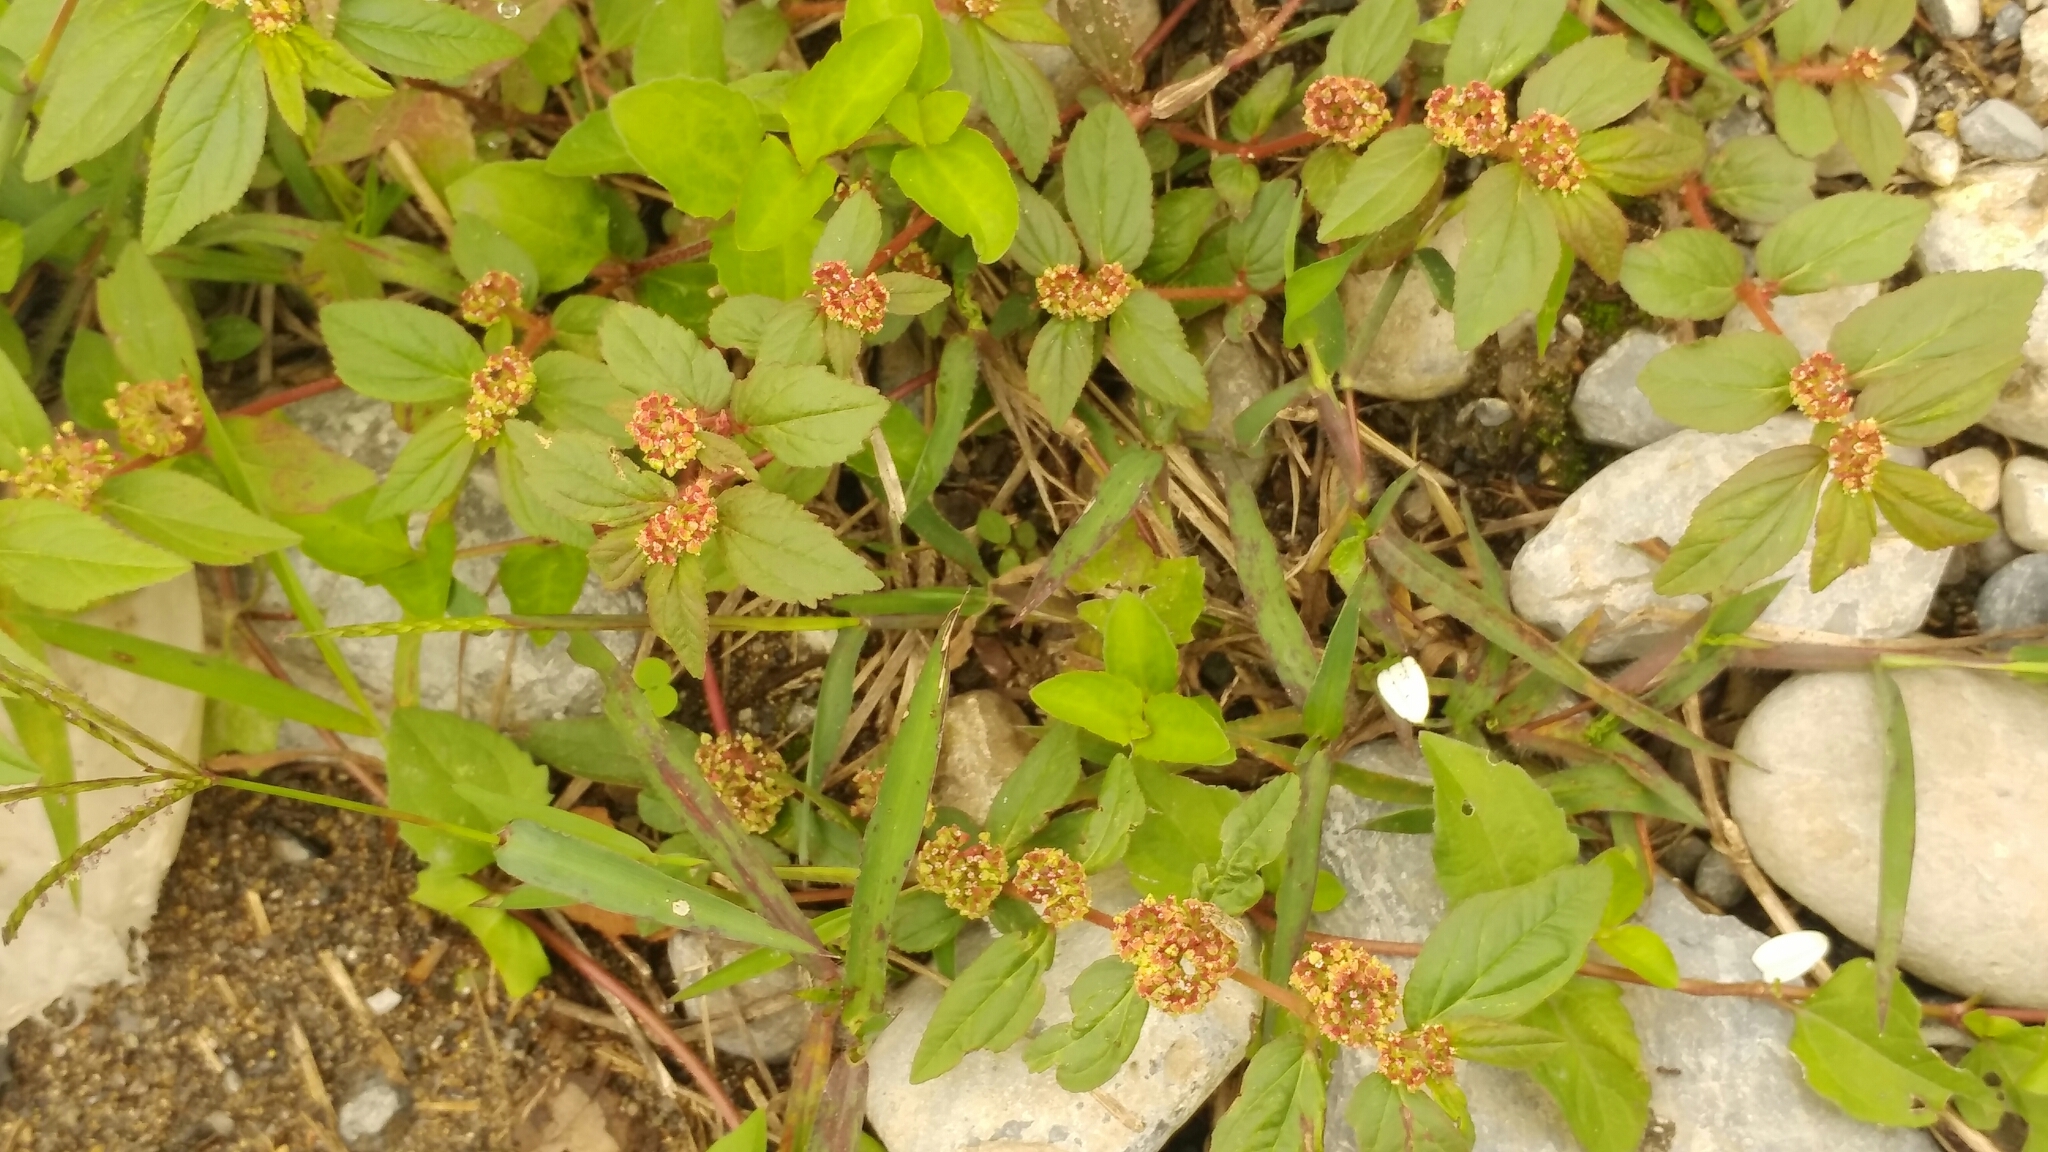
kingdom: Plantae
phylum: Tracheophyta
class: Magnoliopsida
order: Malpighiales
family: Euphorbiaceae
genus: Euphorbia
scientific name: Euphorbia hirta
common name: Pillpod sandmat
